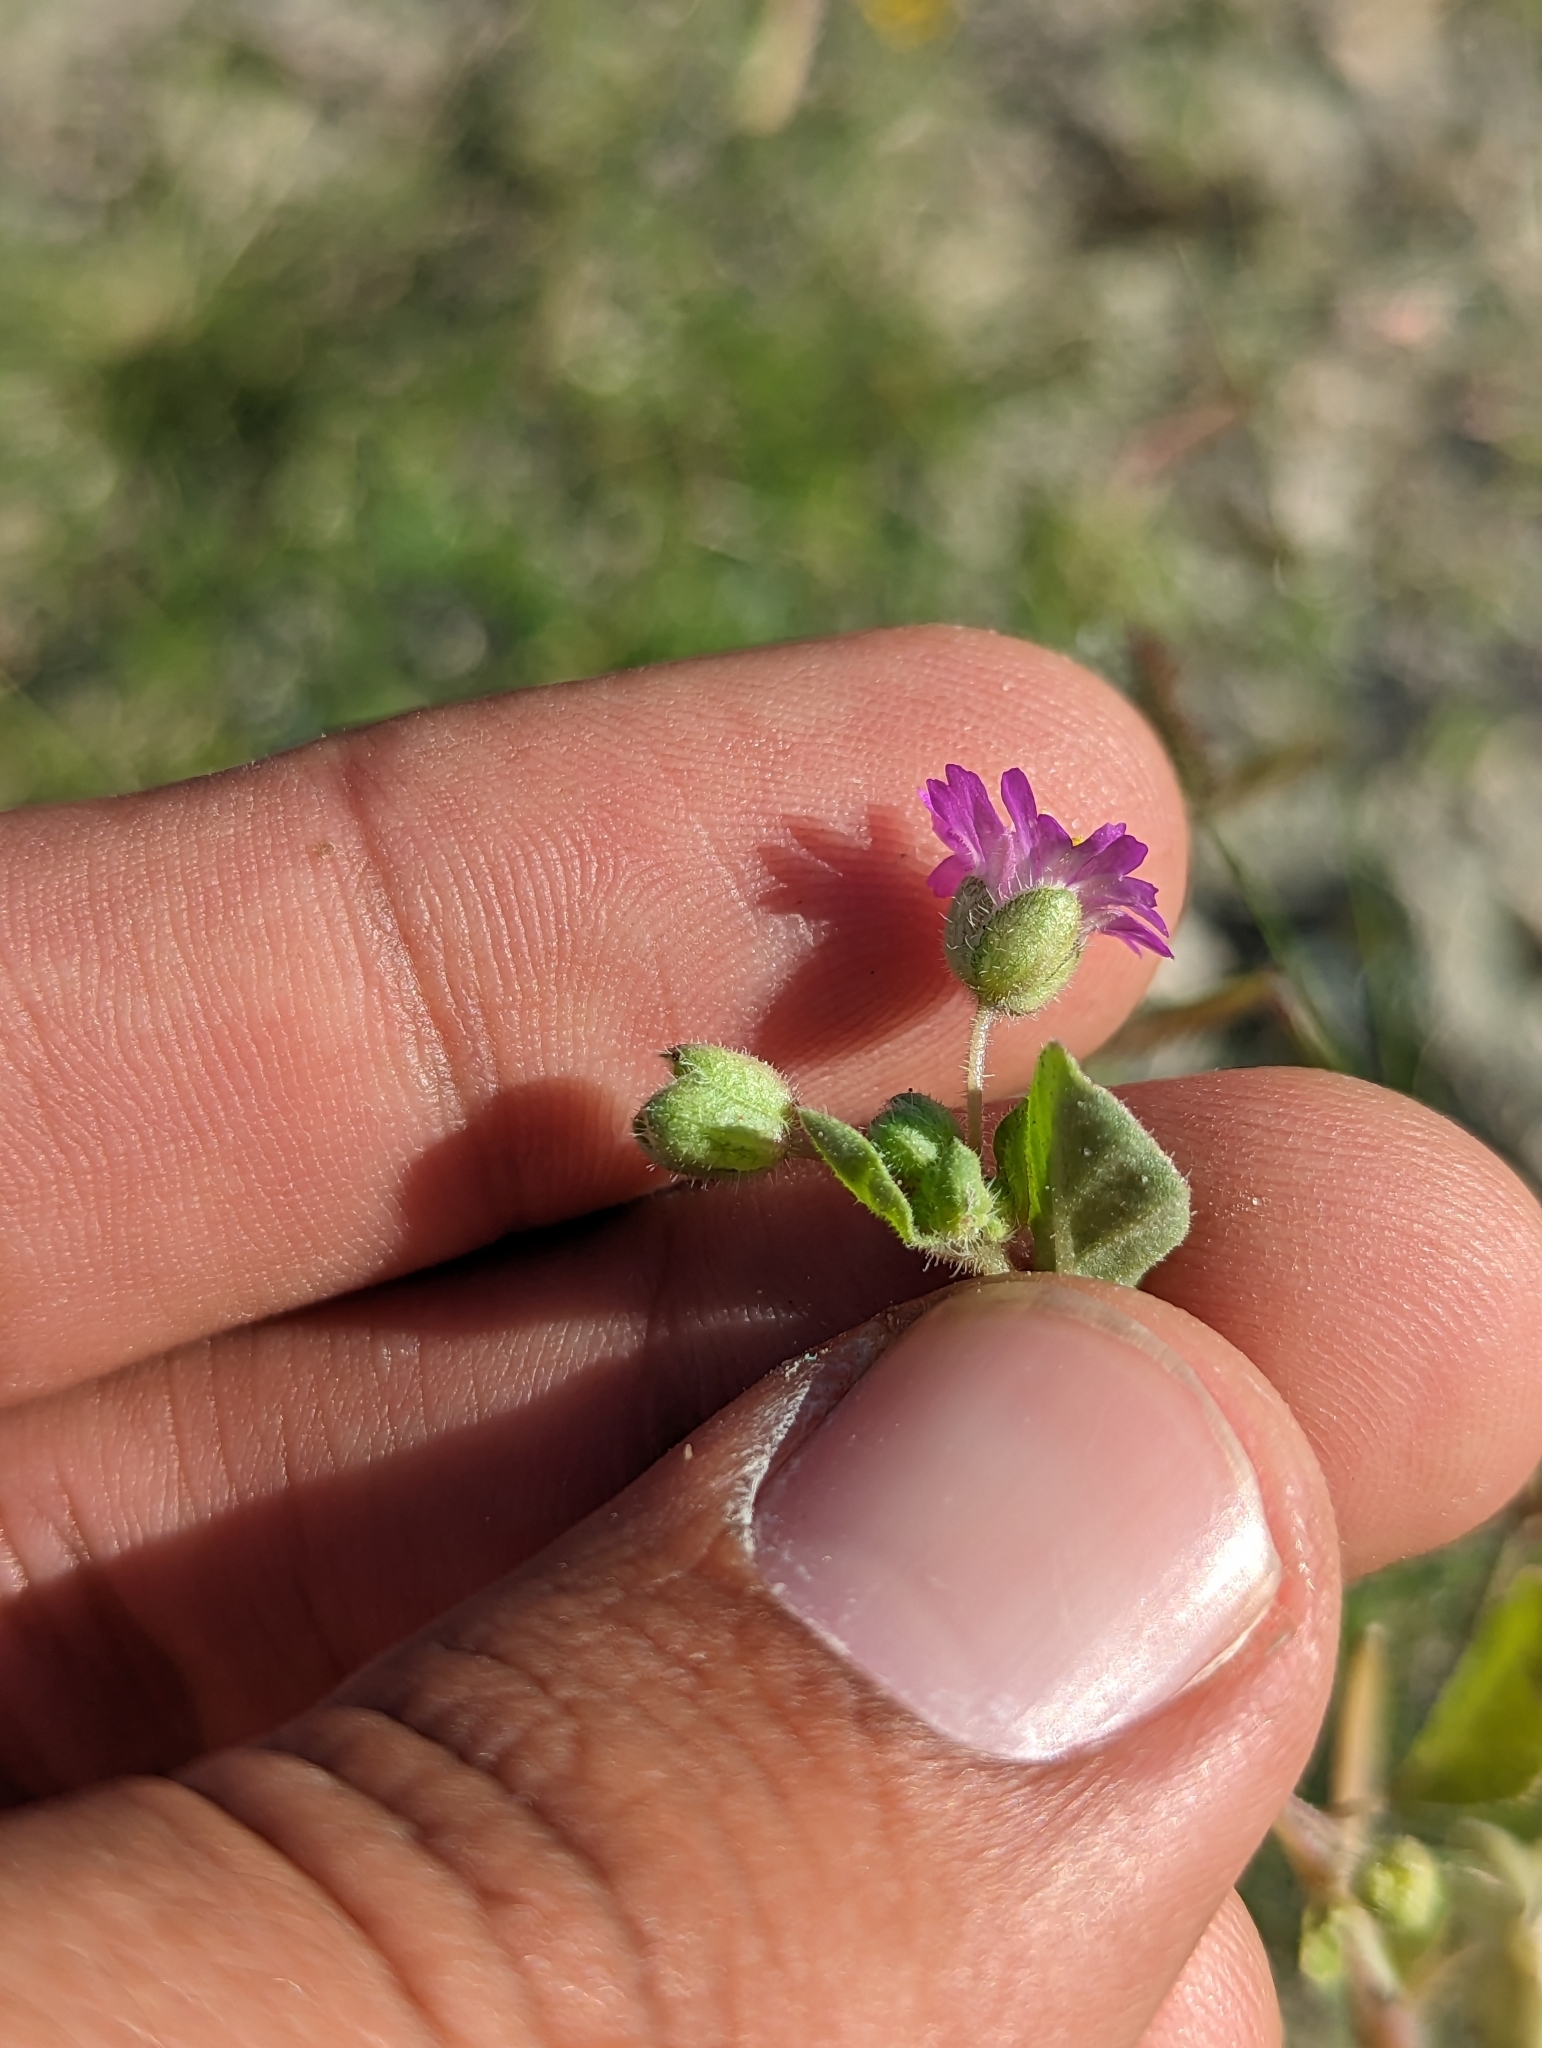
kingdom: Plantae
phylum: Tracheophyta
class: Magnoliopsida
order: Caryophyllales
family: Nyctaginaceae
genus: Allionia
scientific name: Allionia incarnata
